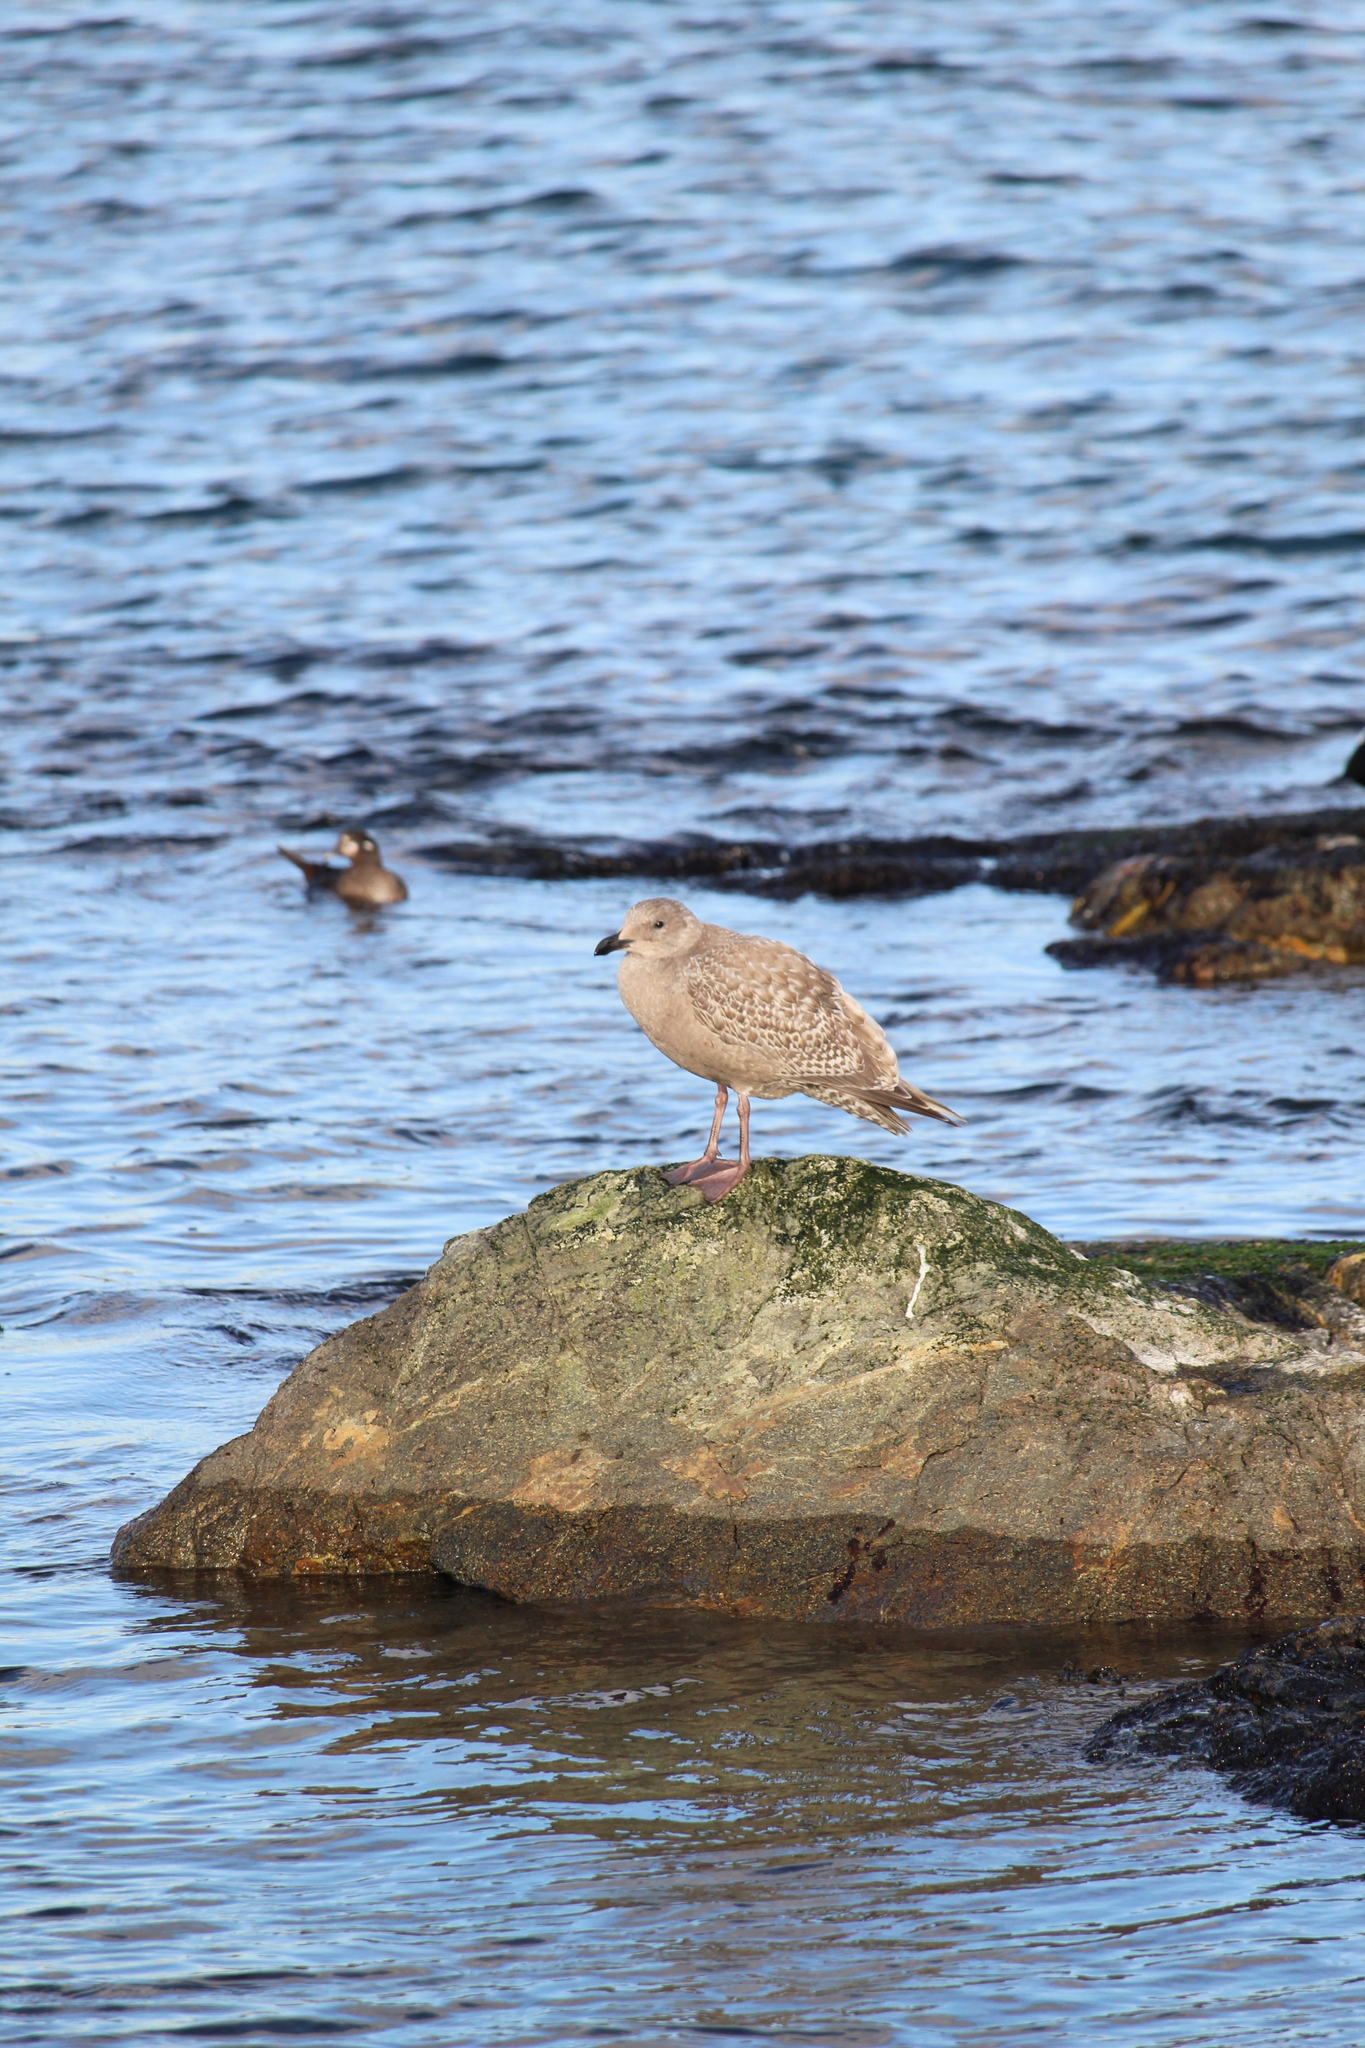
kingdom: Animalia
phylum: Chordata
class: Aves
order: Charadriiformes
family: Laridae
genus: Larus
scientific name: Larus glaucescens
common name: Glaucous-winged gull
